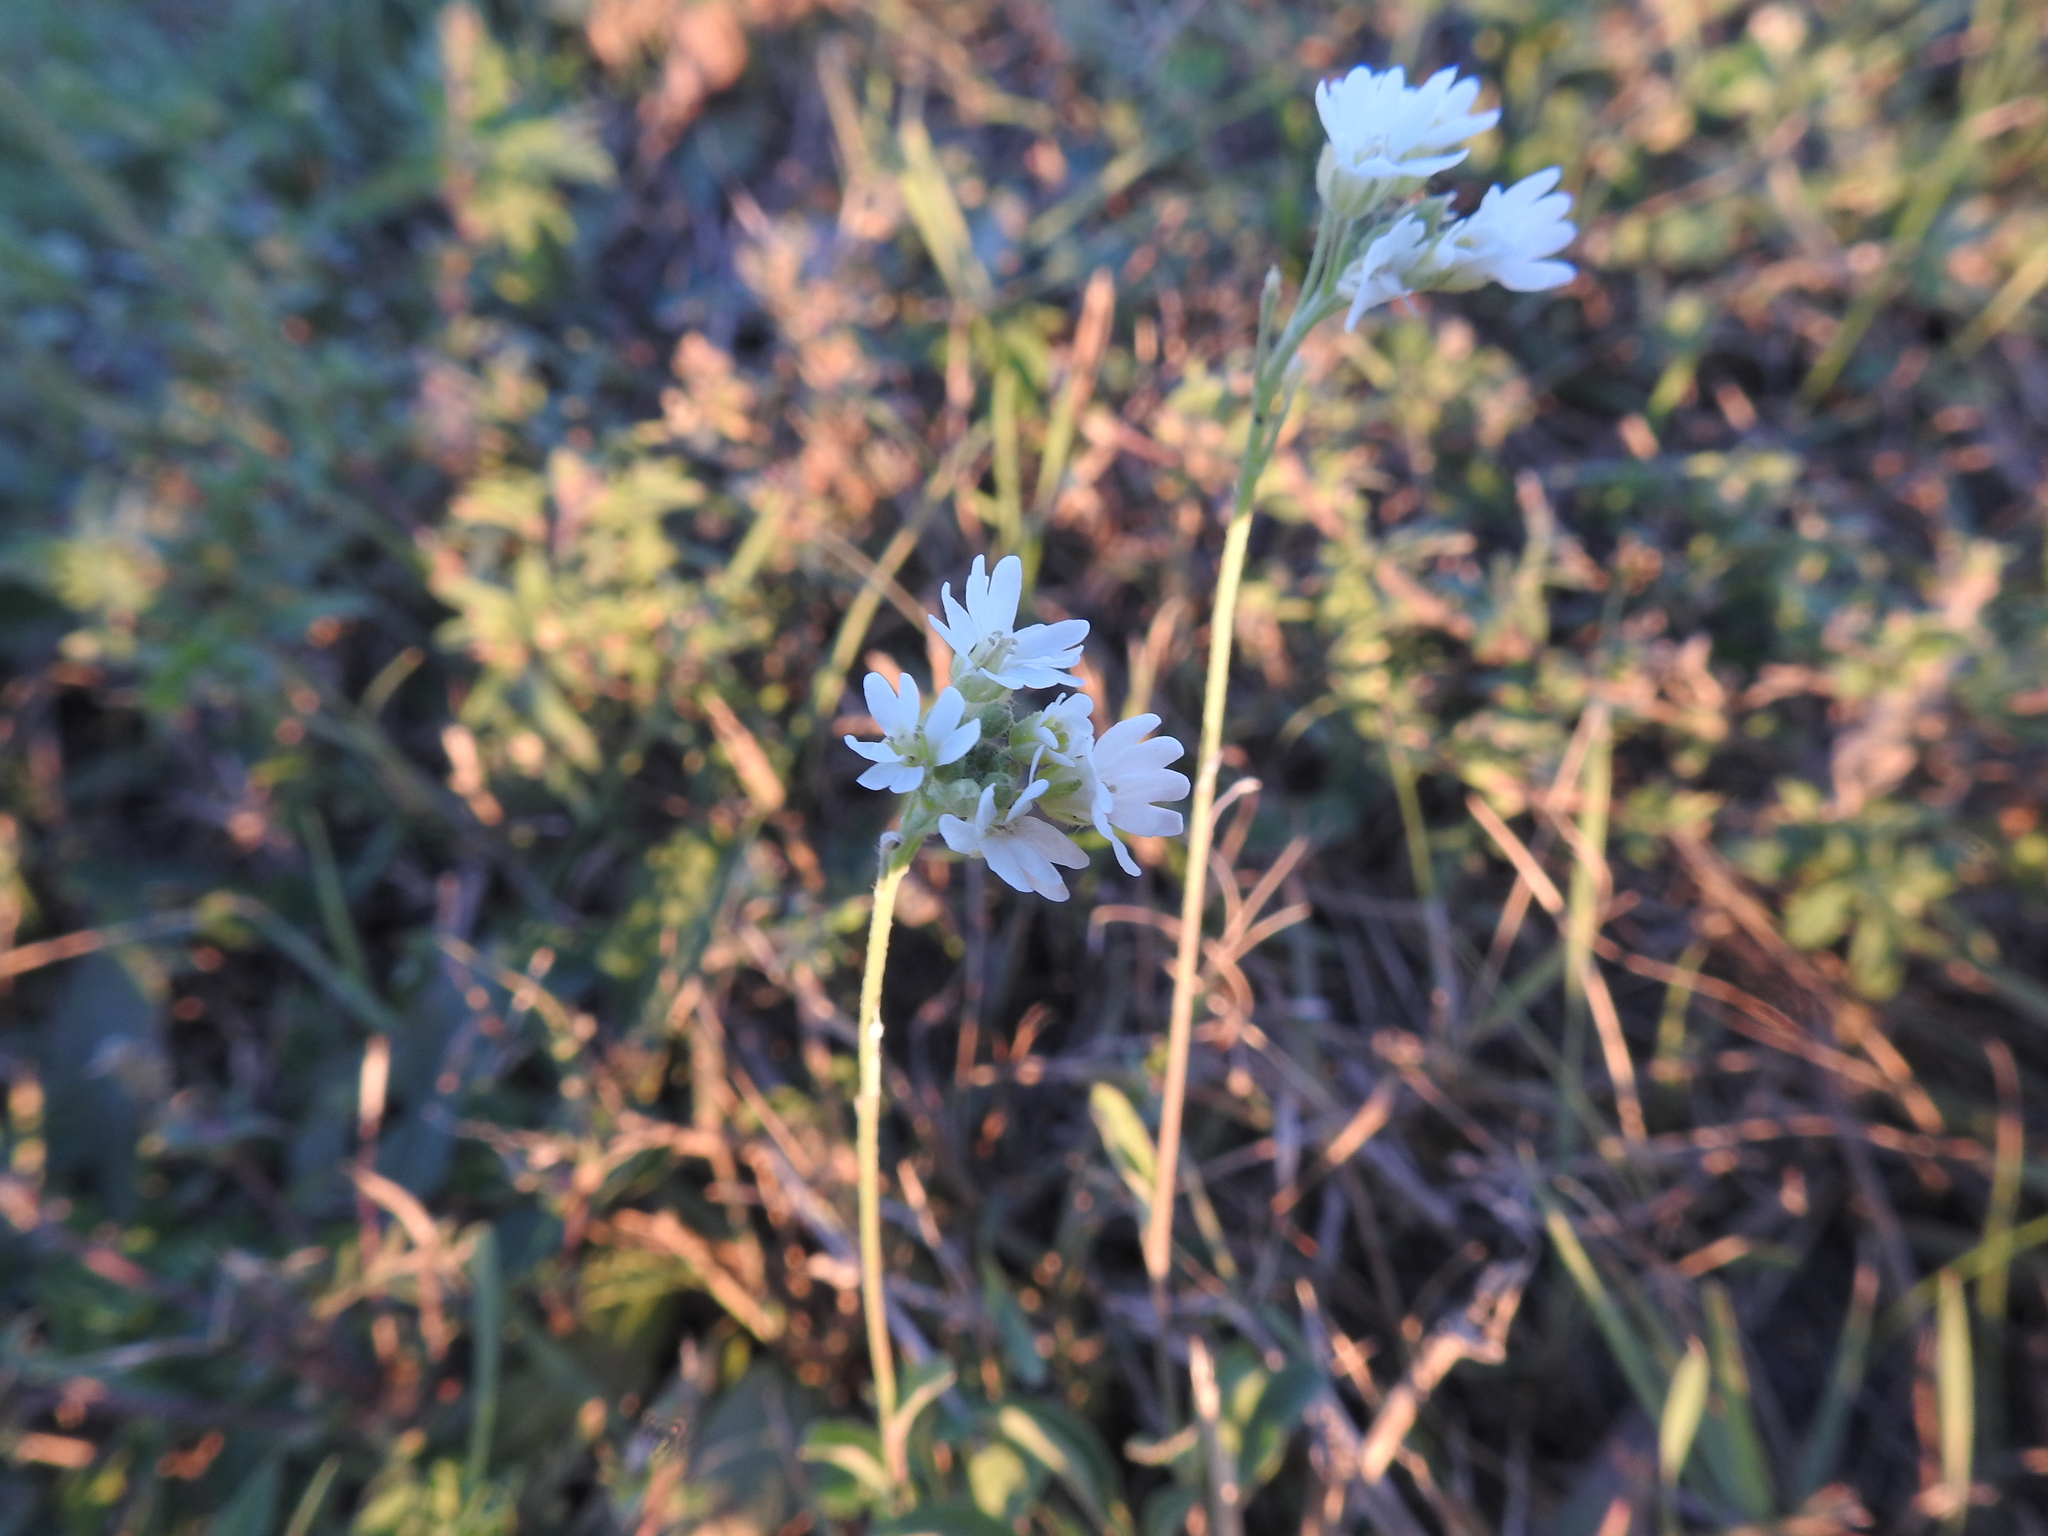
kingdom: Plantae
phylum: Tracheophyta
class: Magnoliopsida
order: Brassicales
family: Brassicaceae
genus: Berteroa
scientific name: Berteroa incana
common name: Hoary alison
